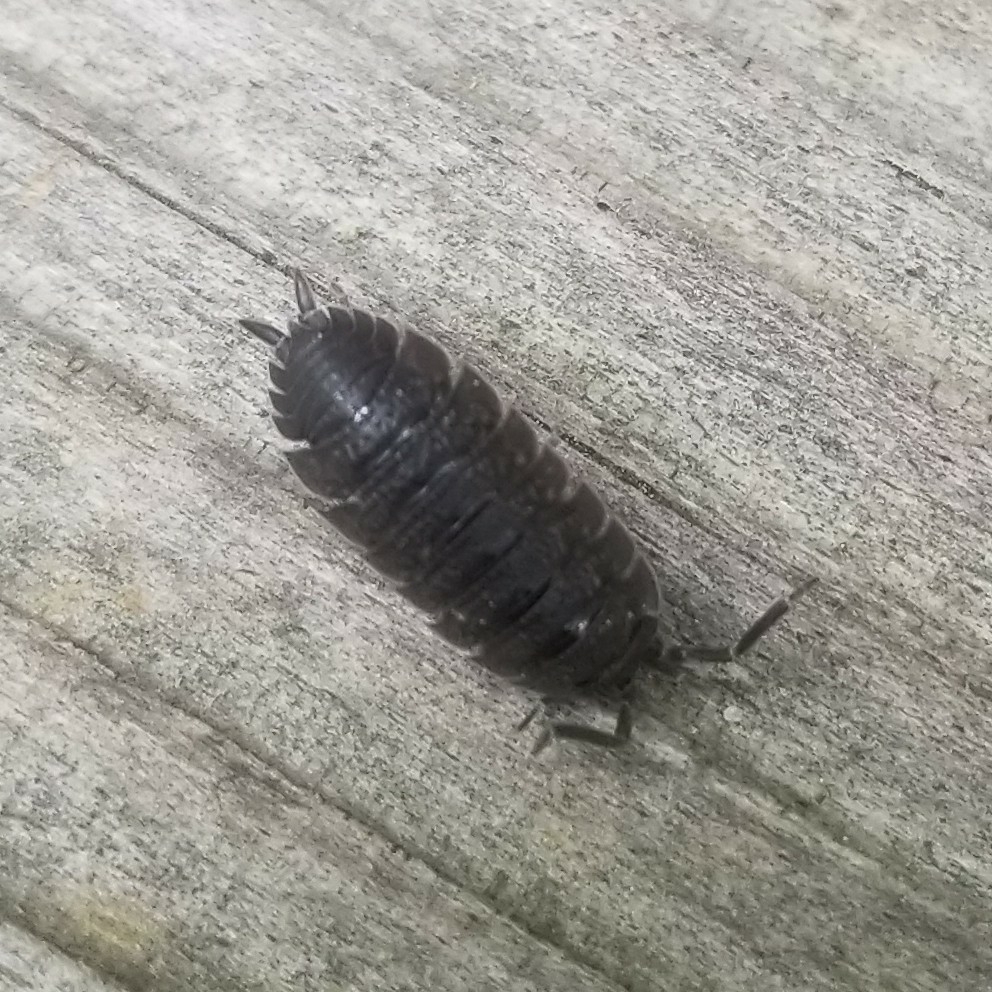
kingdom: Animalia
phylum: Arthropoda
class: Malacostraca
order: Isopoda
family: Porcellionidae
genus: Porcellio
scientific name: Porcellio scaber
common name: Common rough woodlouse
